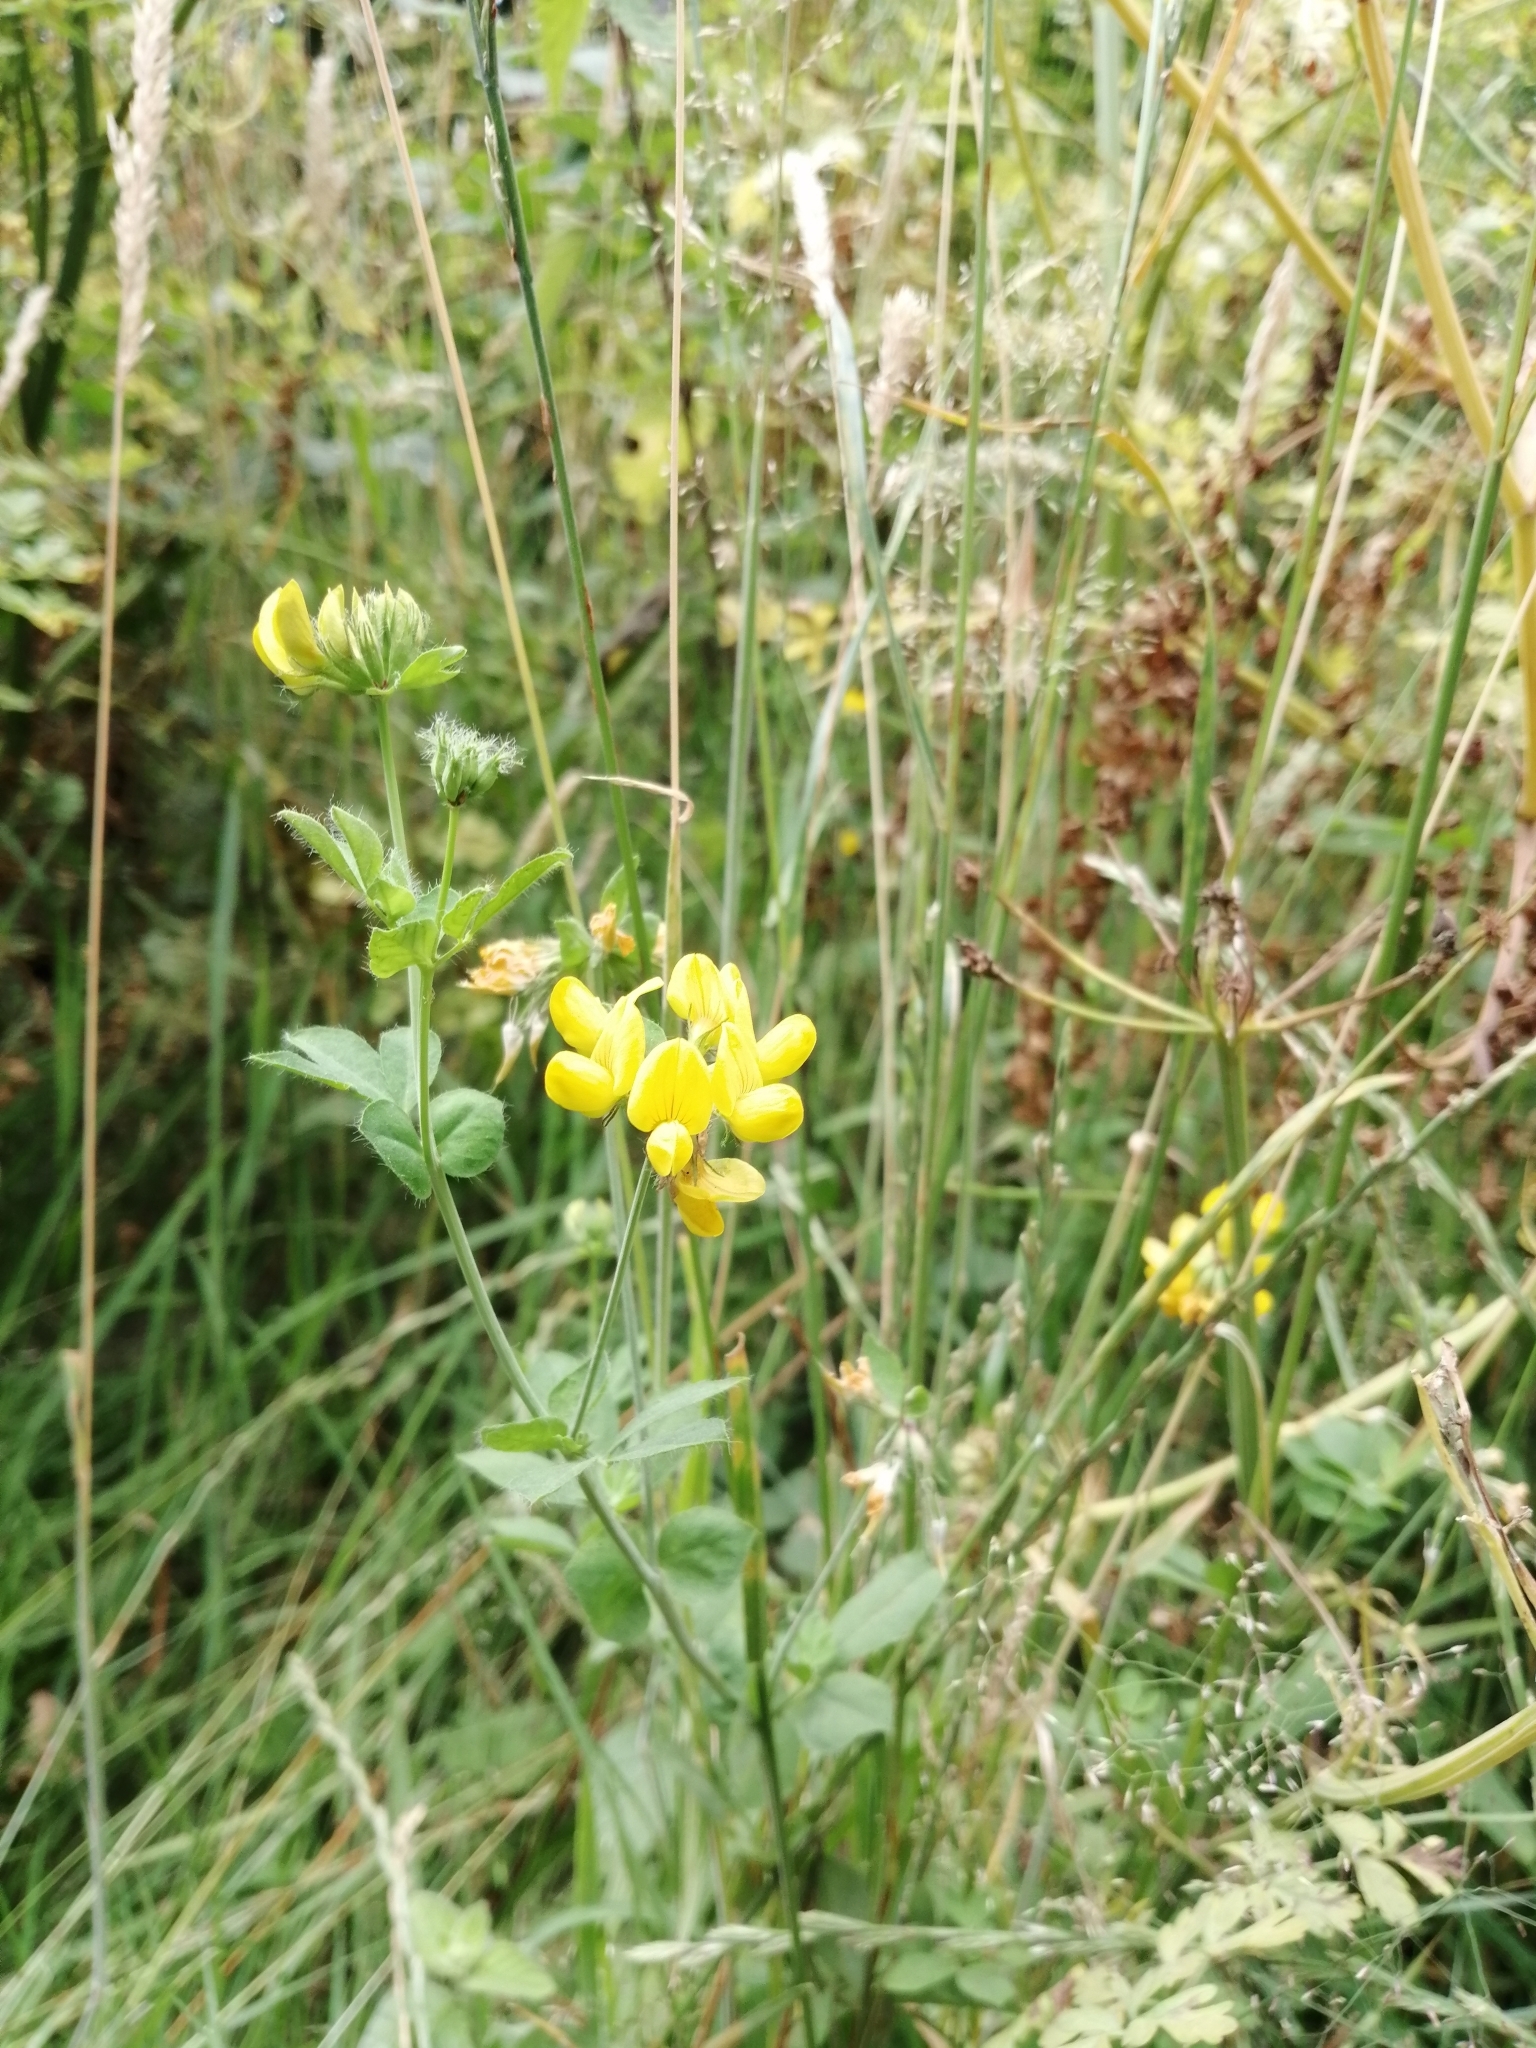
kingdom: Plantae
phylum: Tracheophyta
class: Magnoliopsida
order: Fabales
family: Fabaceae
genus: Lotus
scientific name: Lotus pedunculatus
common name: Greater birdsfoot-trefoil
